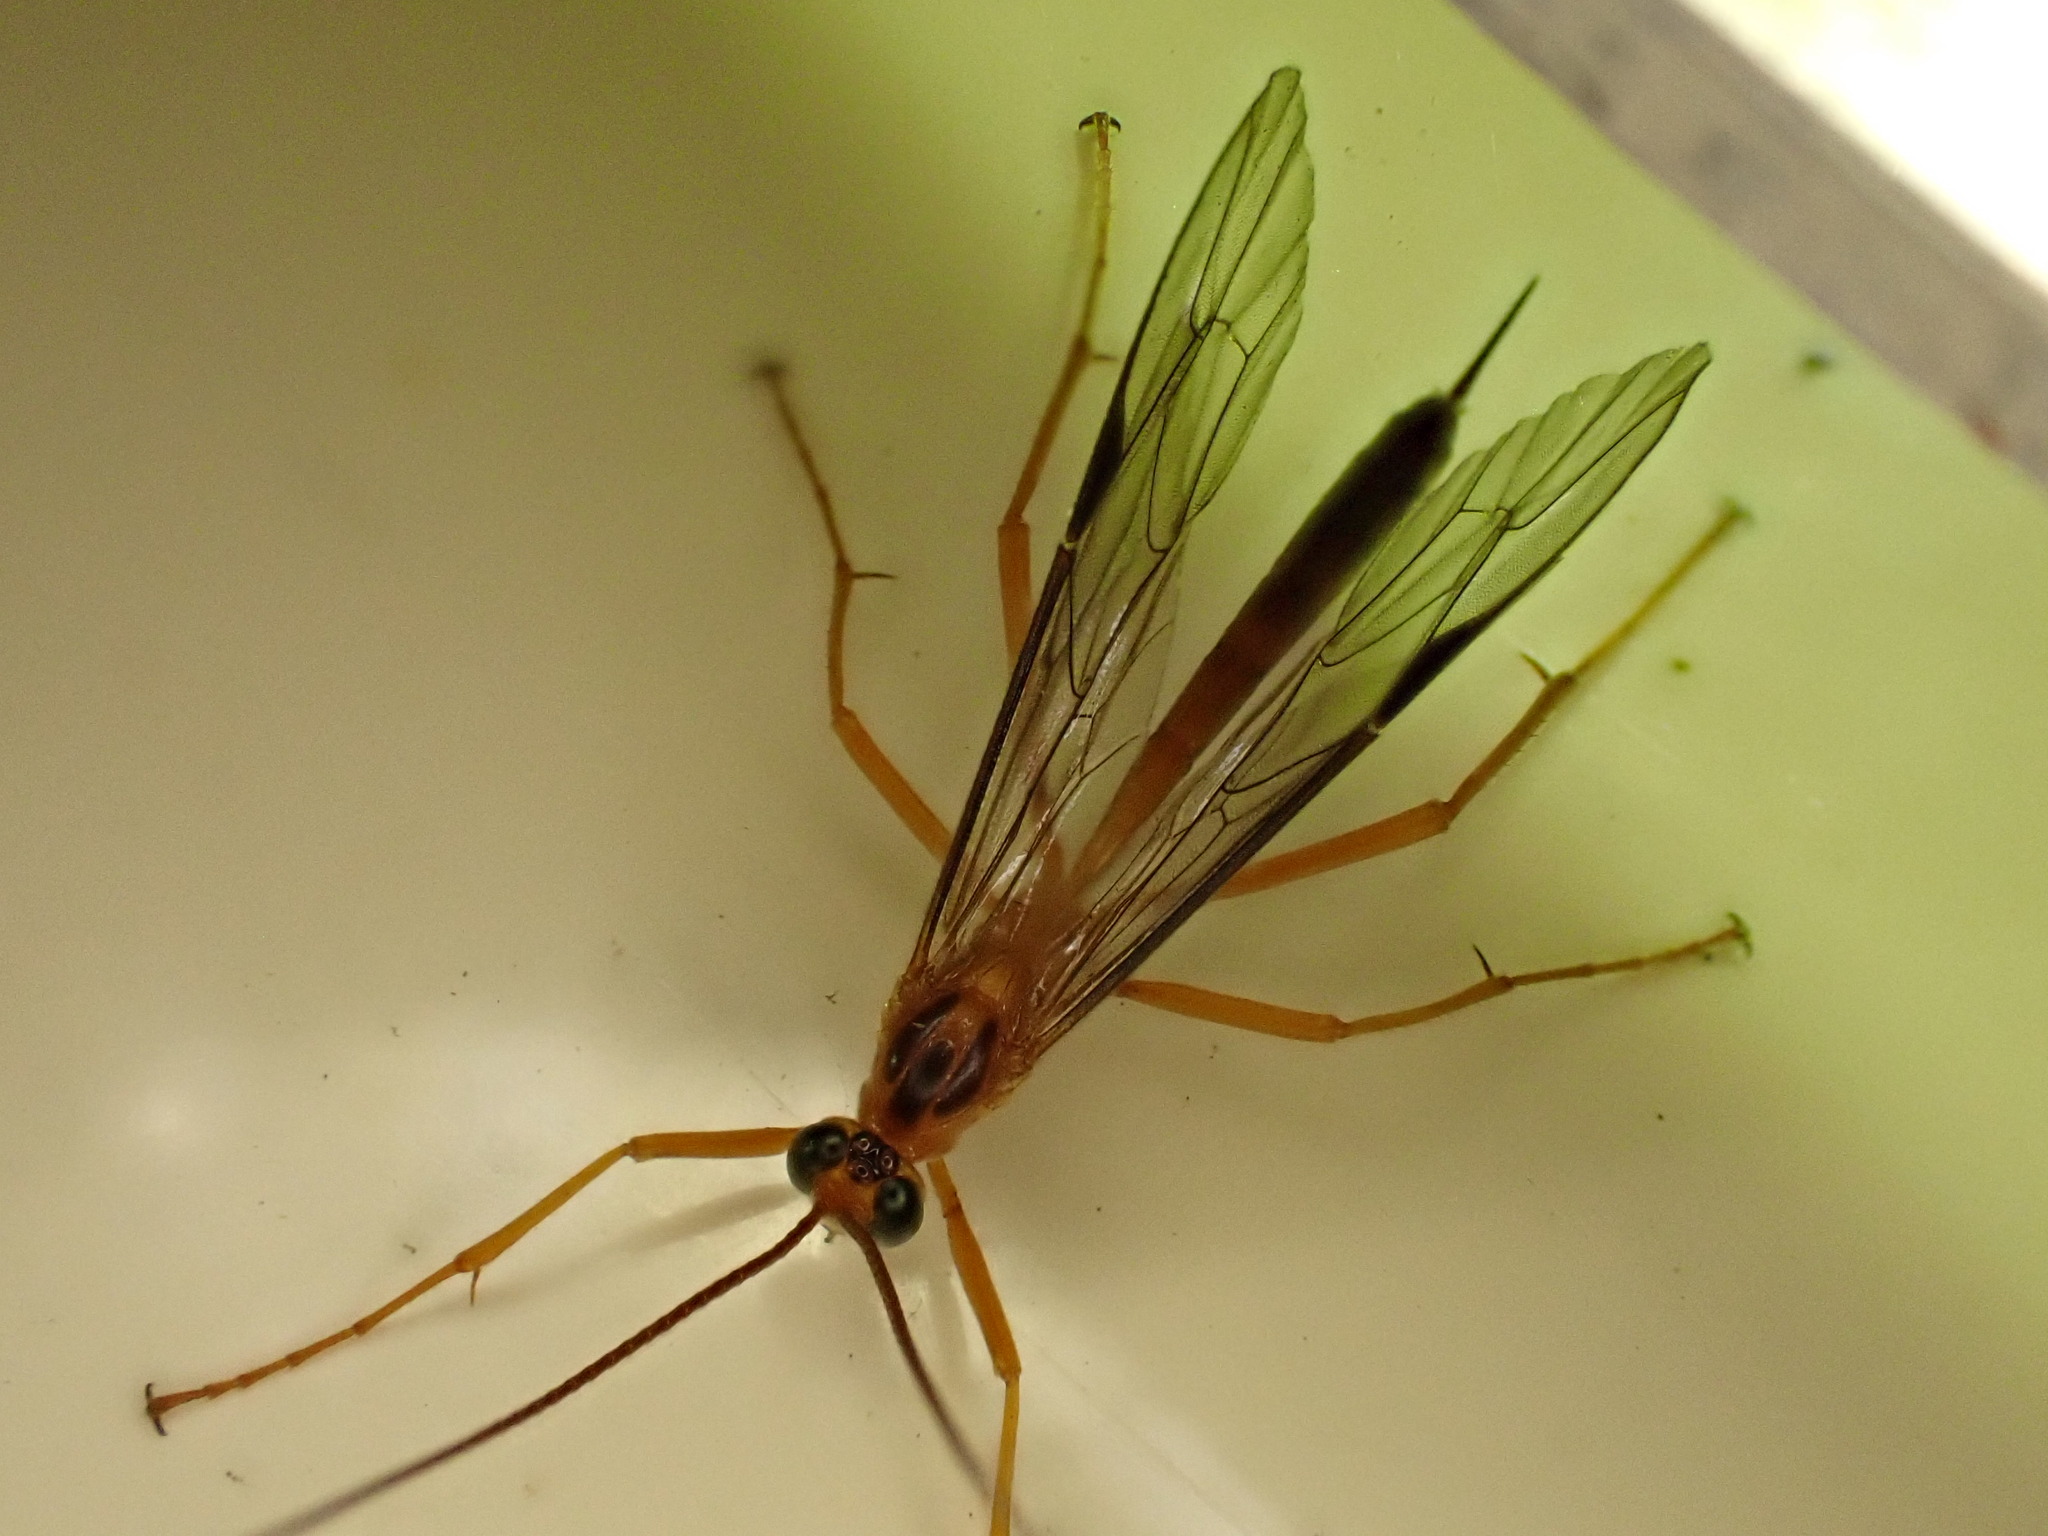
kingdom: Animalia
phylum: Arthropoda
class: Insecta
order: Hymenoptera
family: Ichneumonidae
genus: Netelia
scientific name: Netelia ephippiata
